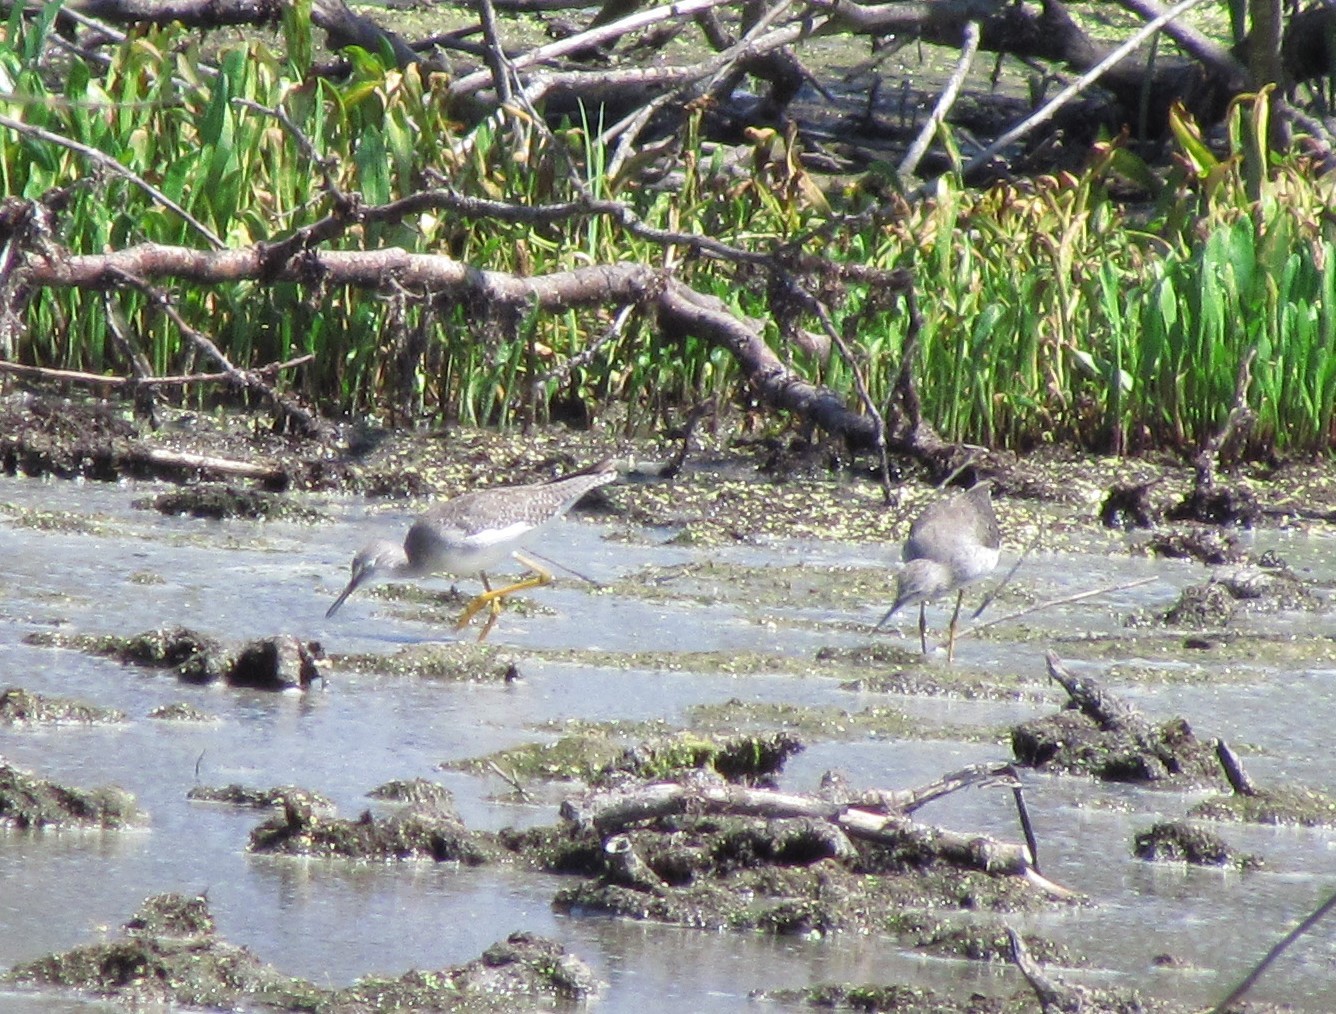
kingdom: Animalia
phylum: Chordata
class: Aves
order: Charadriiformes
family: Scolopacidae
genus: Tringa
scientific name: Tringa flavipes
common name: Lesser yellowlegs
